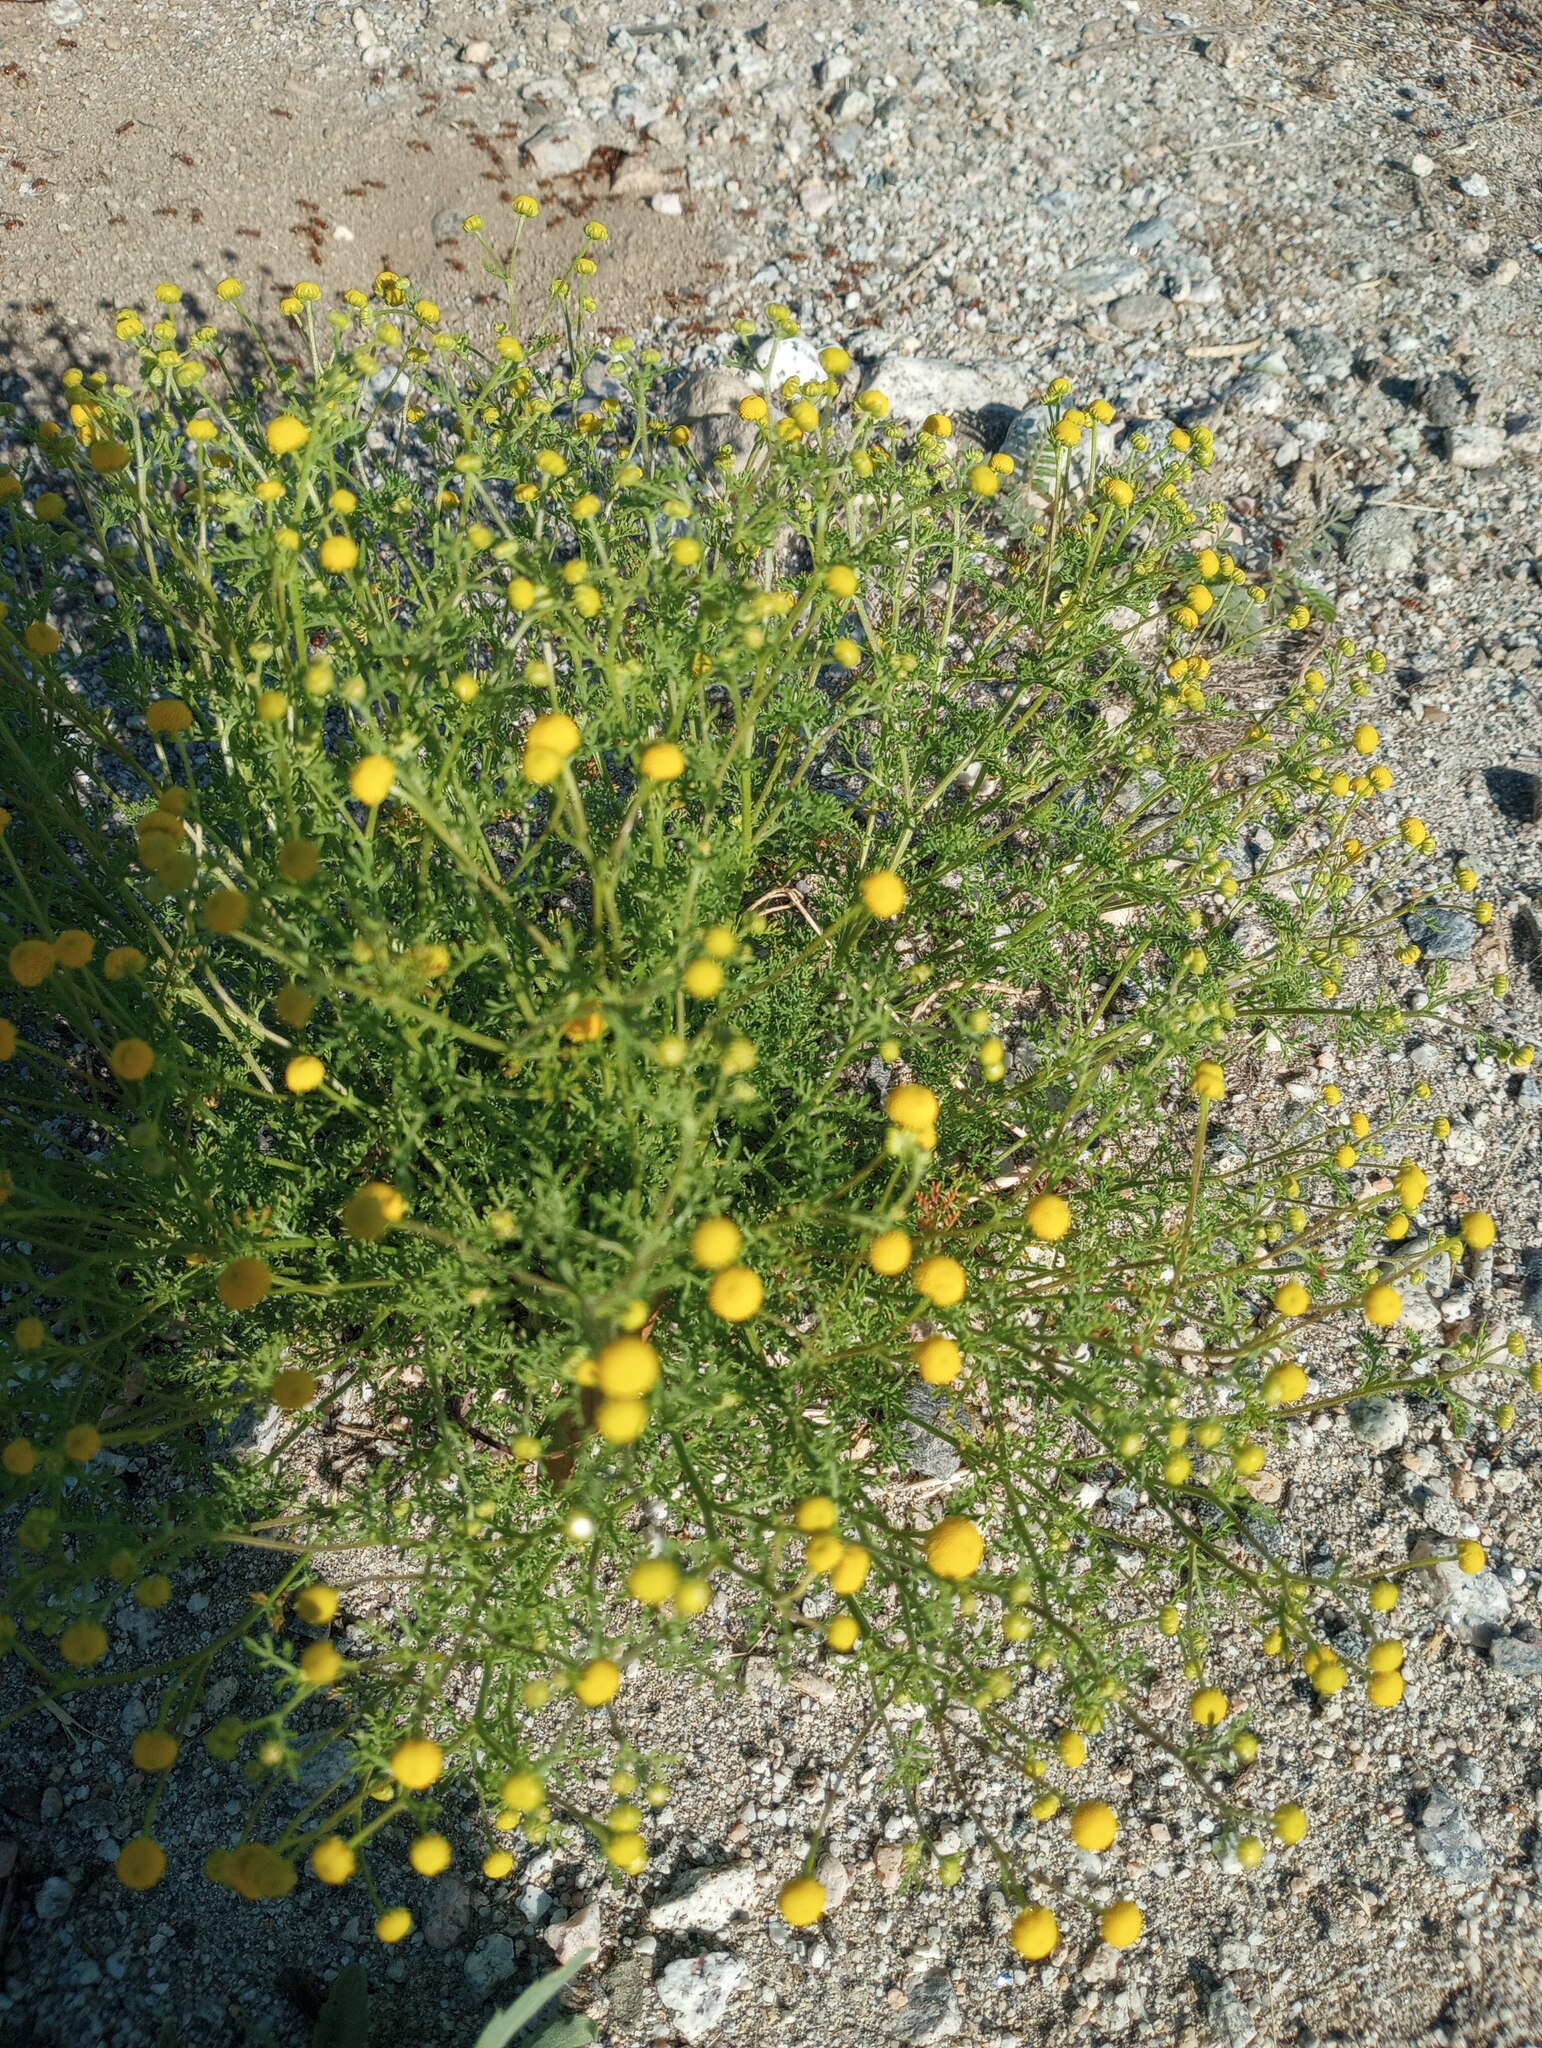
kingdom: Plantae
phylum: Tracheophyta
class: Magnoliopsida
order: Asterales
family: Asteraceae
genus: Oncosiphon
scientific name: Oncosiphon pilulifer
